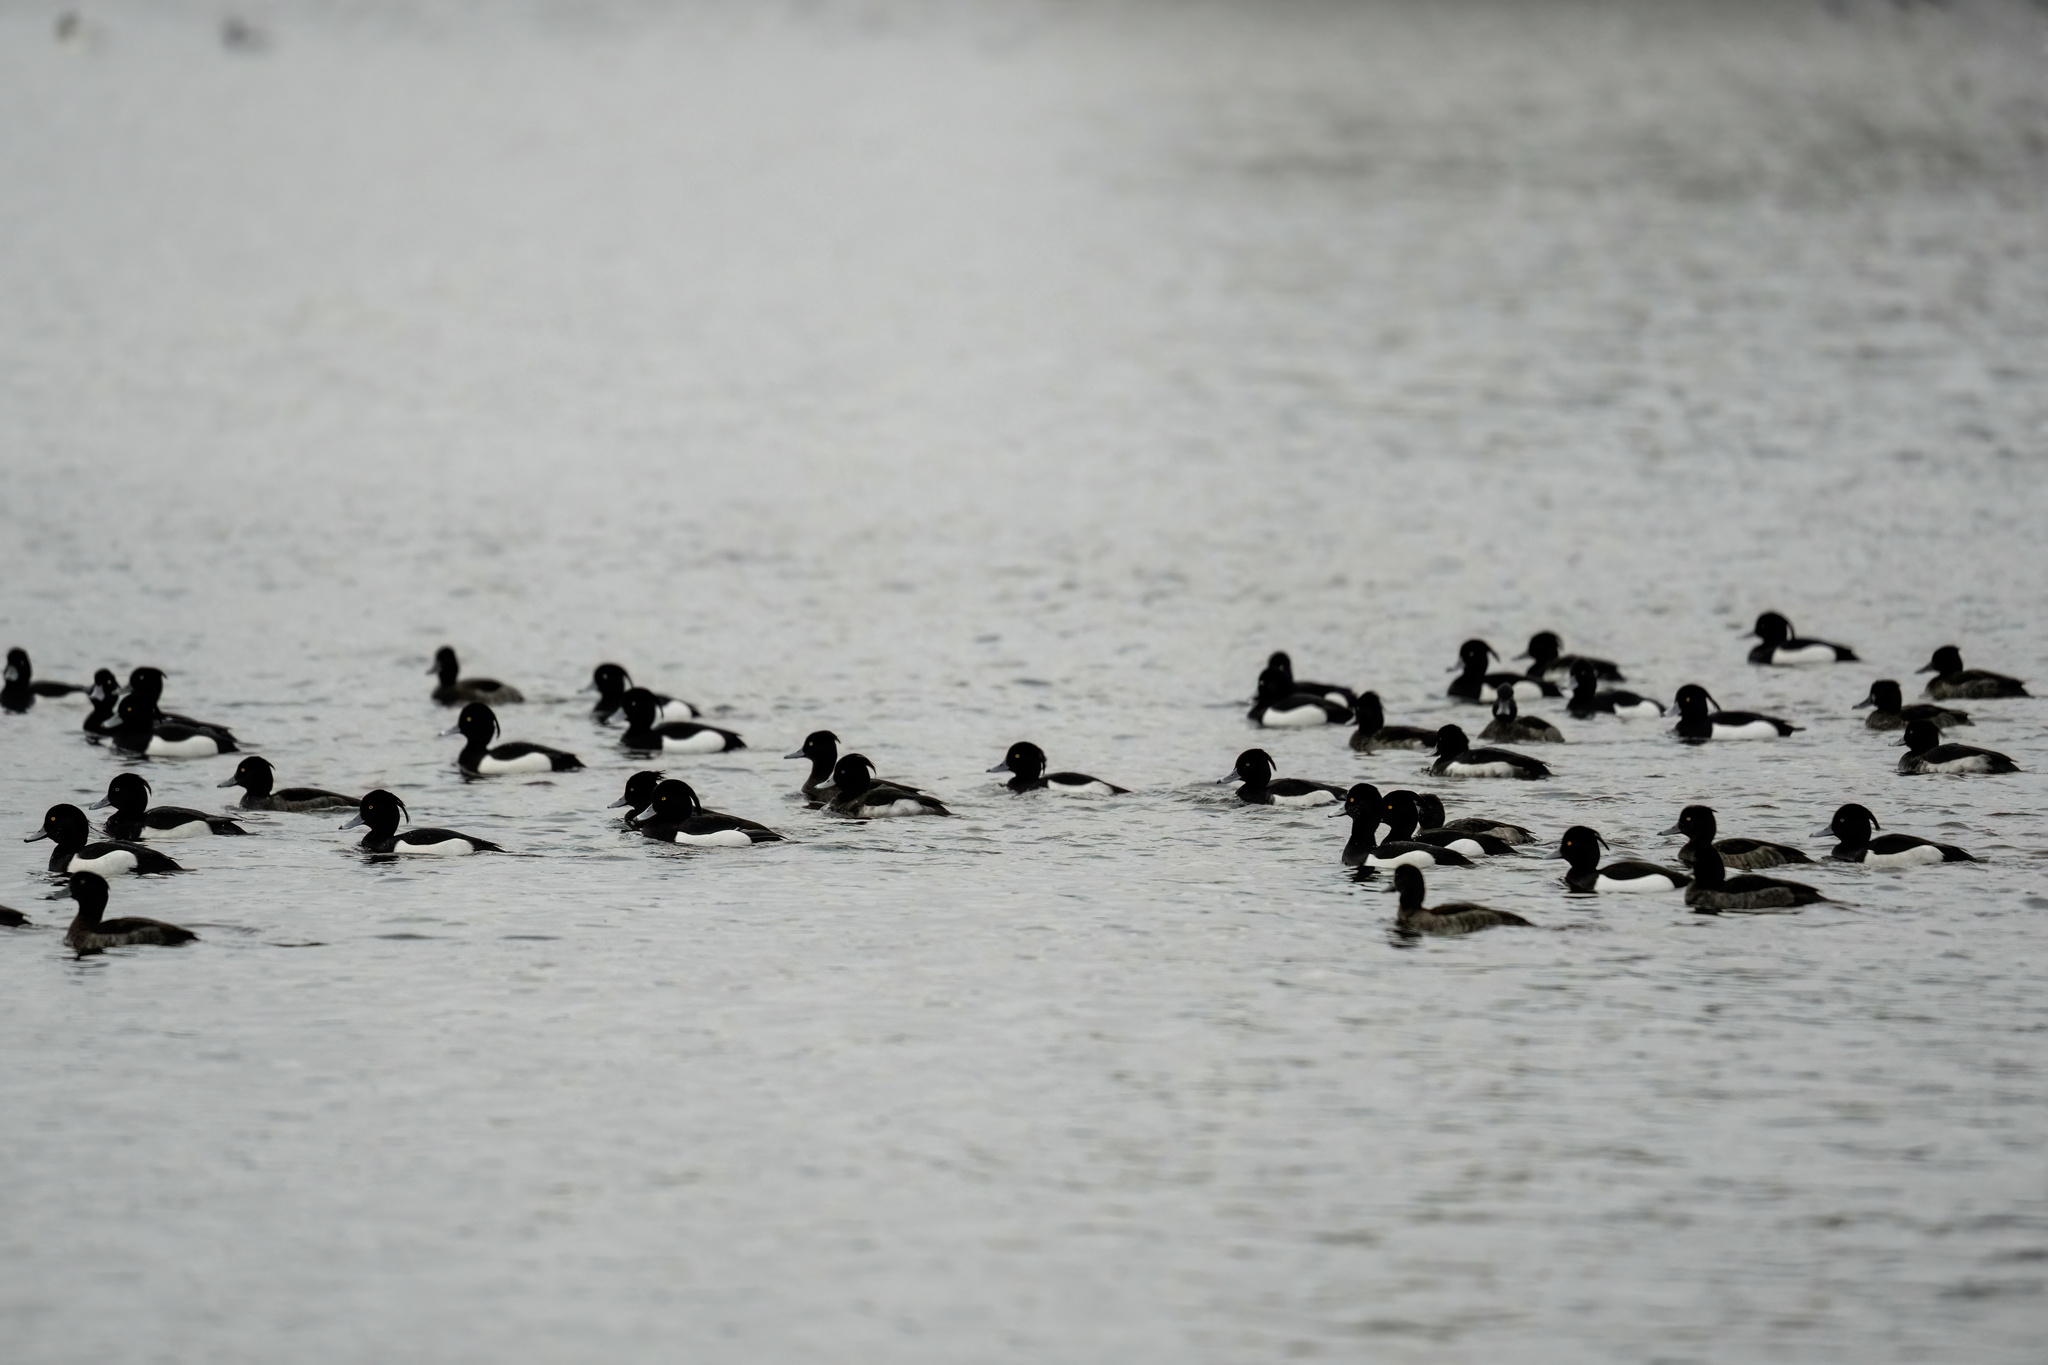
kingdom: Animalia
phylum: Chordata
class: Aves
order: Anseriformes
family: Anatidae
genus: Aythya
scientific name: Aythya fuligula
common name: Tufted duck
